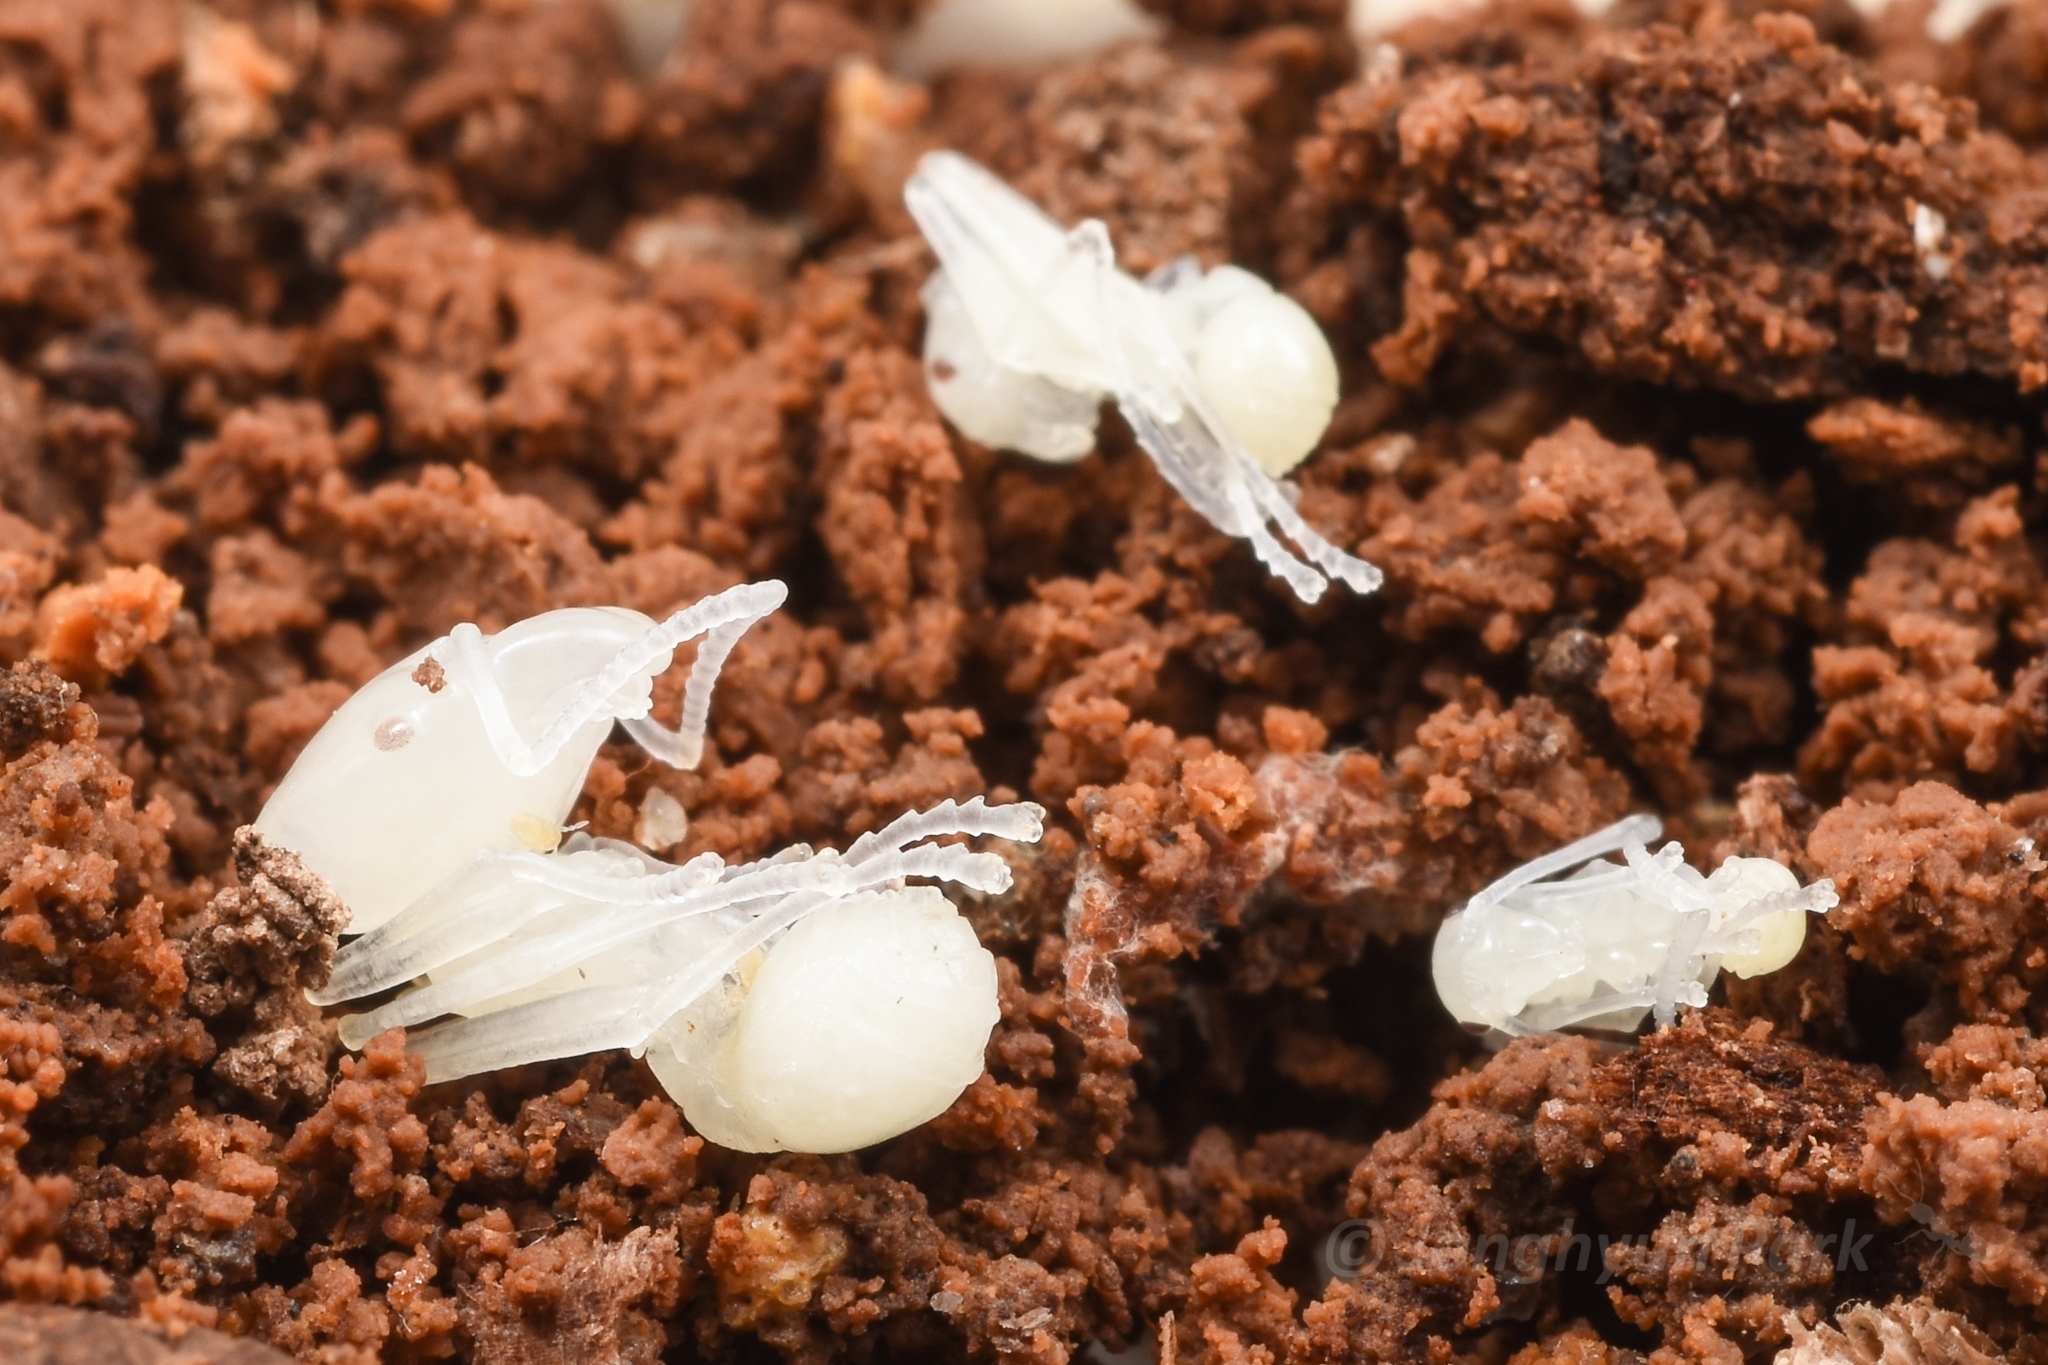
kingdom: Animalia
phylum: Arthropoda
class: Insecta
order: Hymenoptera
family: Formicidae
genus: Pheidole
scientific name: Pheidole
